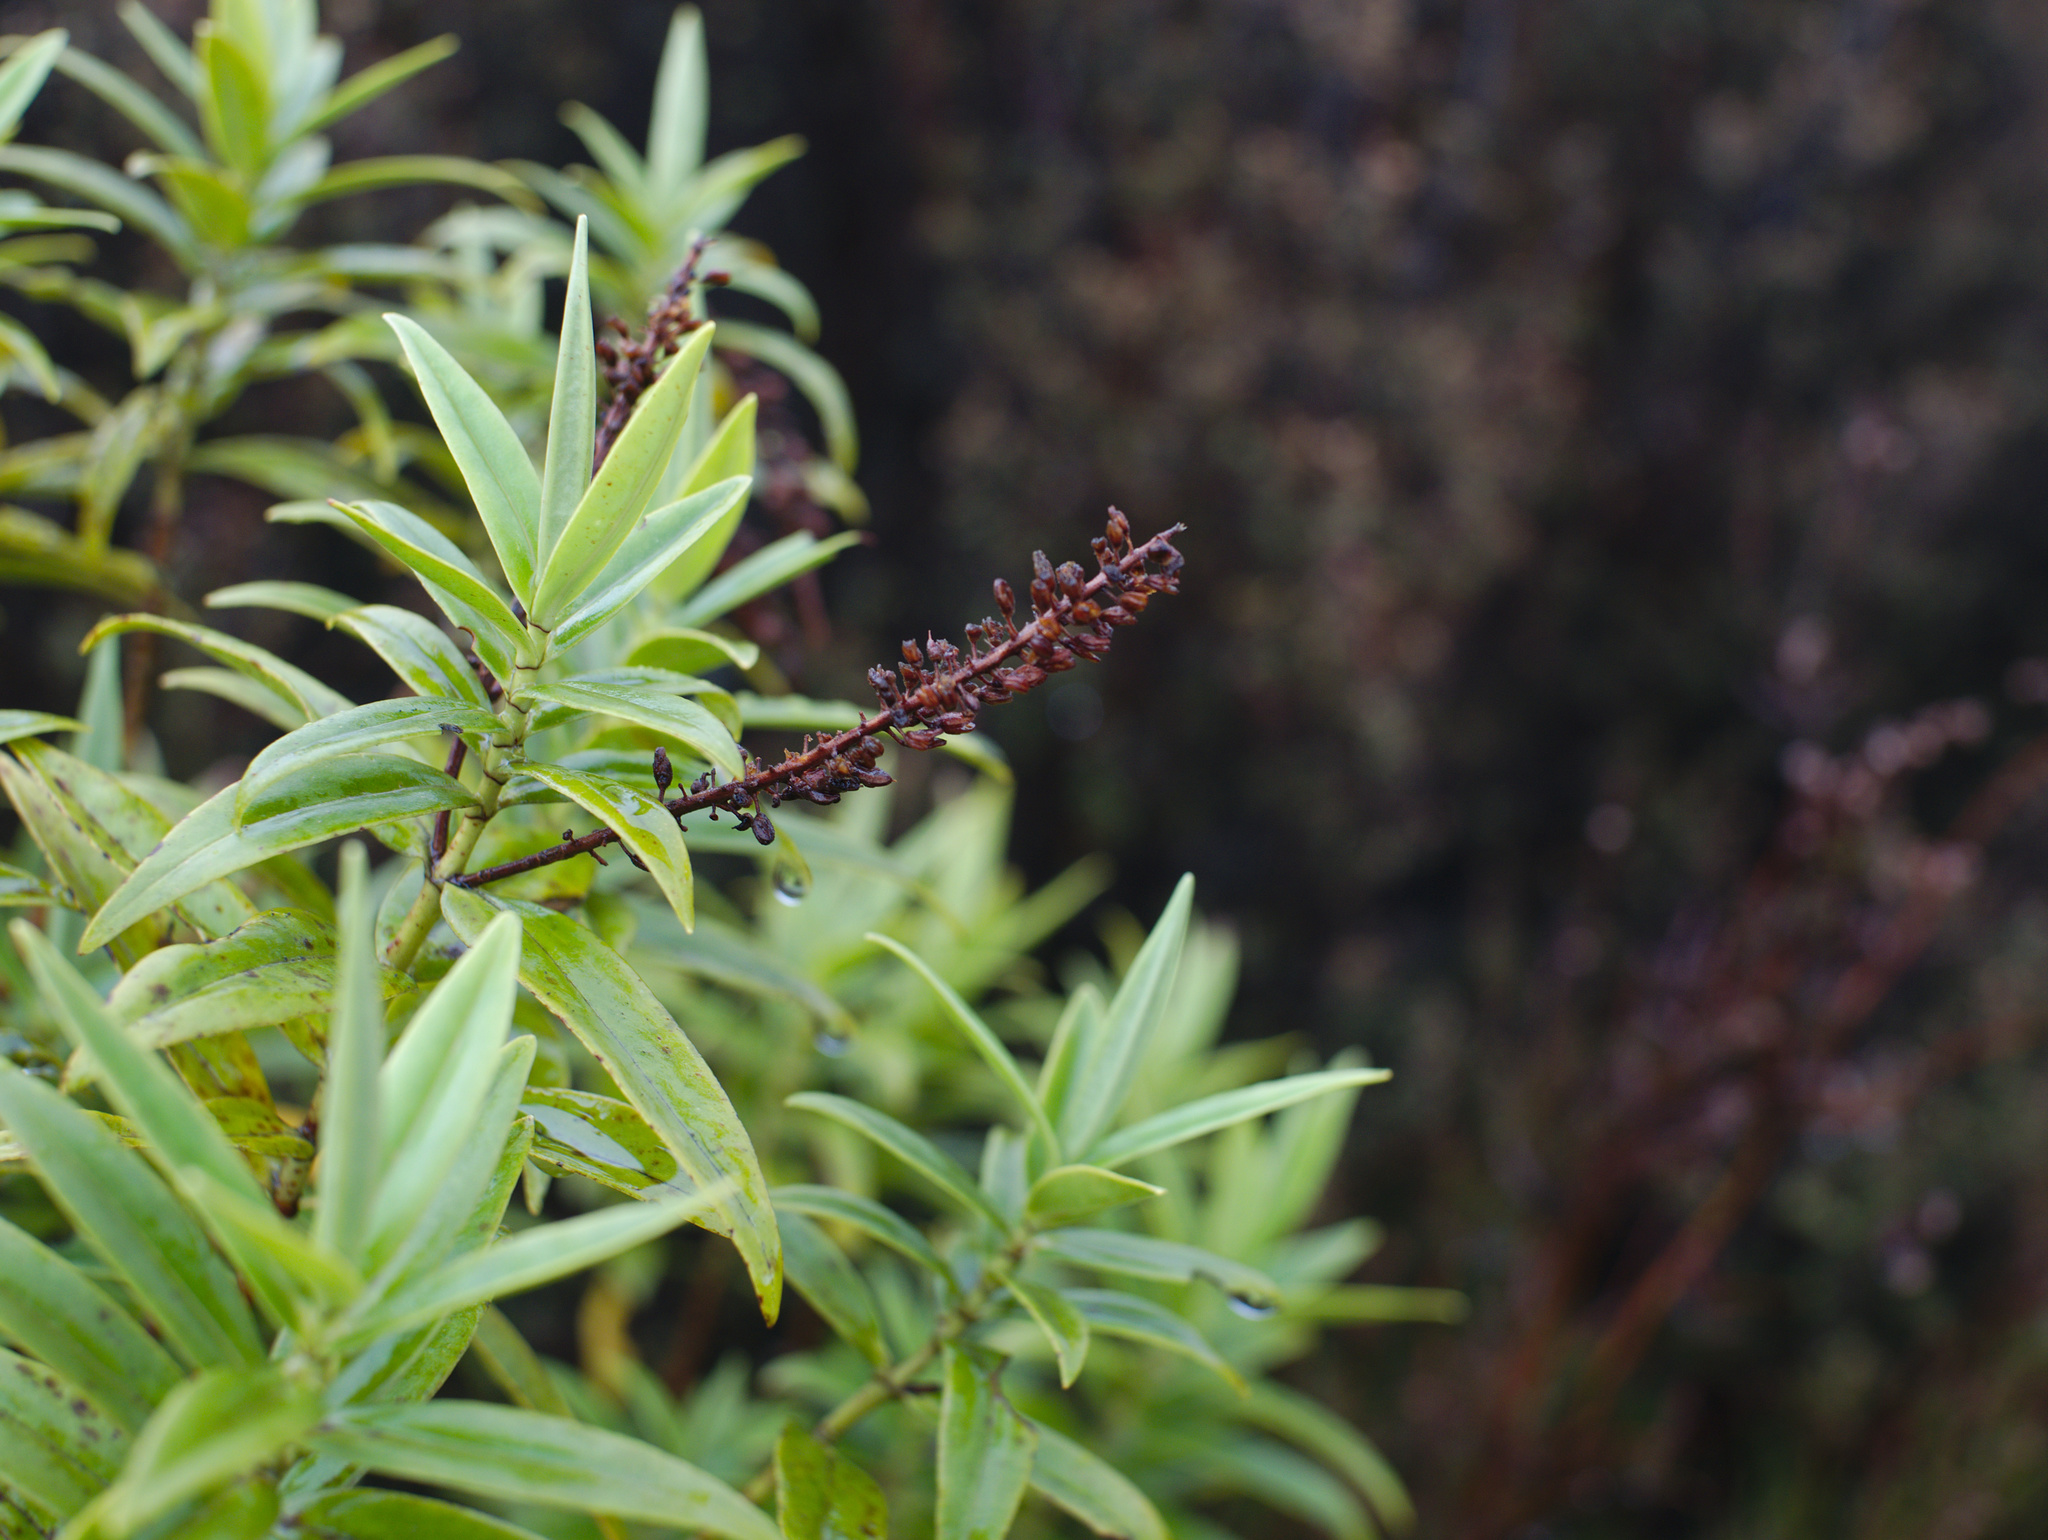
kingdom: Plantae
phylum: Tracheophyta
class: Magnoliopsida
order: Lamiales
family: Plantaginaceae
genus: Veronica
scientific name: Veronica stricta
